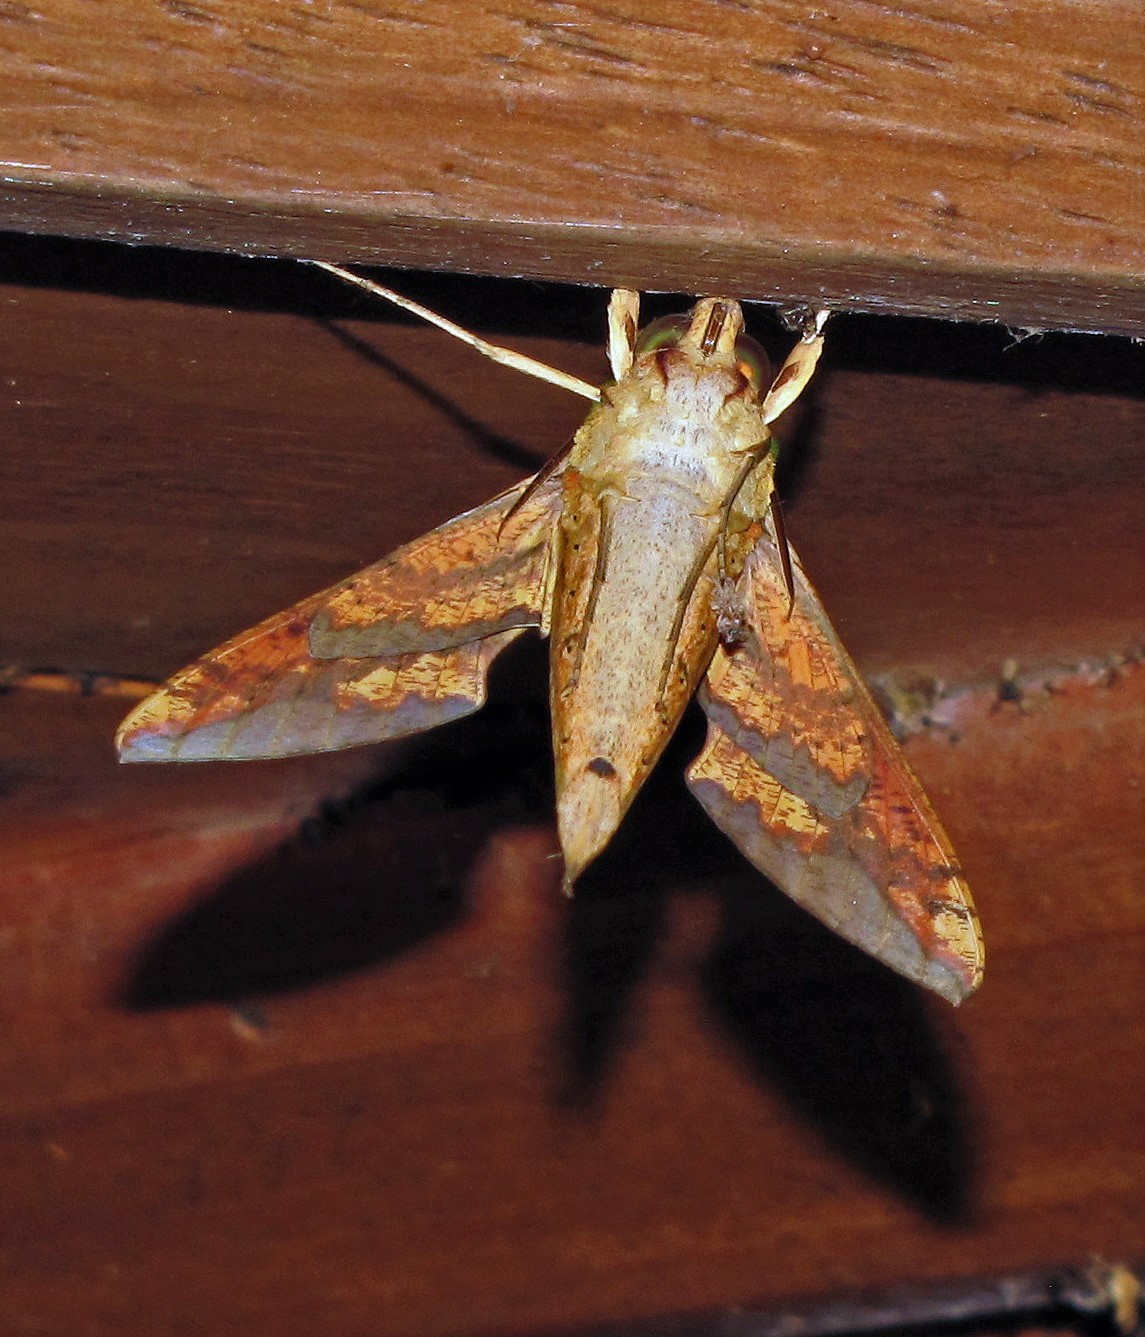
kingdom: Animalia
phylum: Arthropoda
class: Insecta
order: Lepidoptera
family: Sphingidae
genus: Xylophanes
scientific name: Xylophanes chiron
